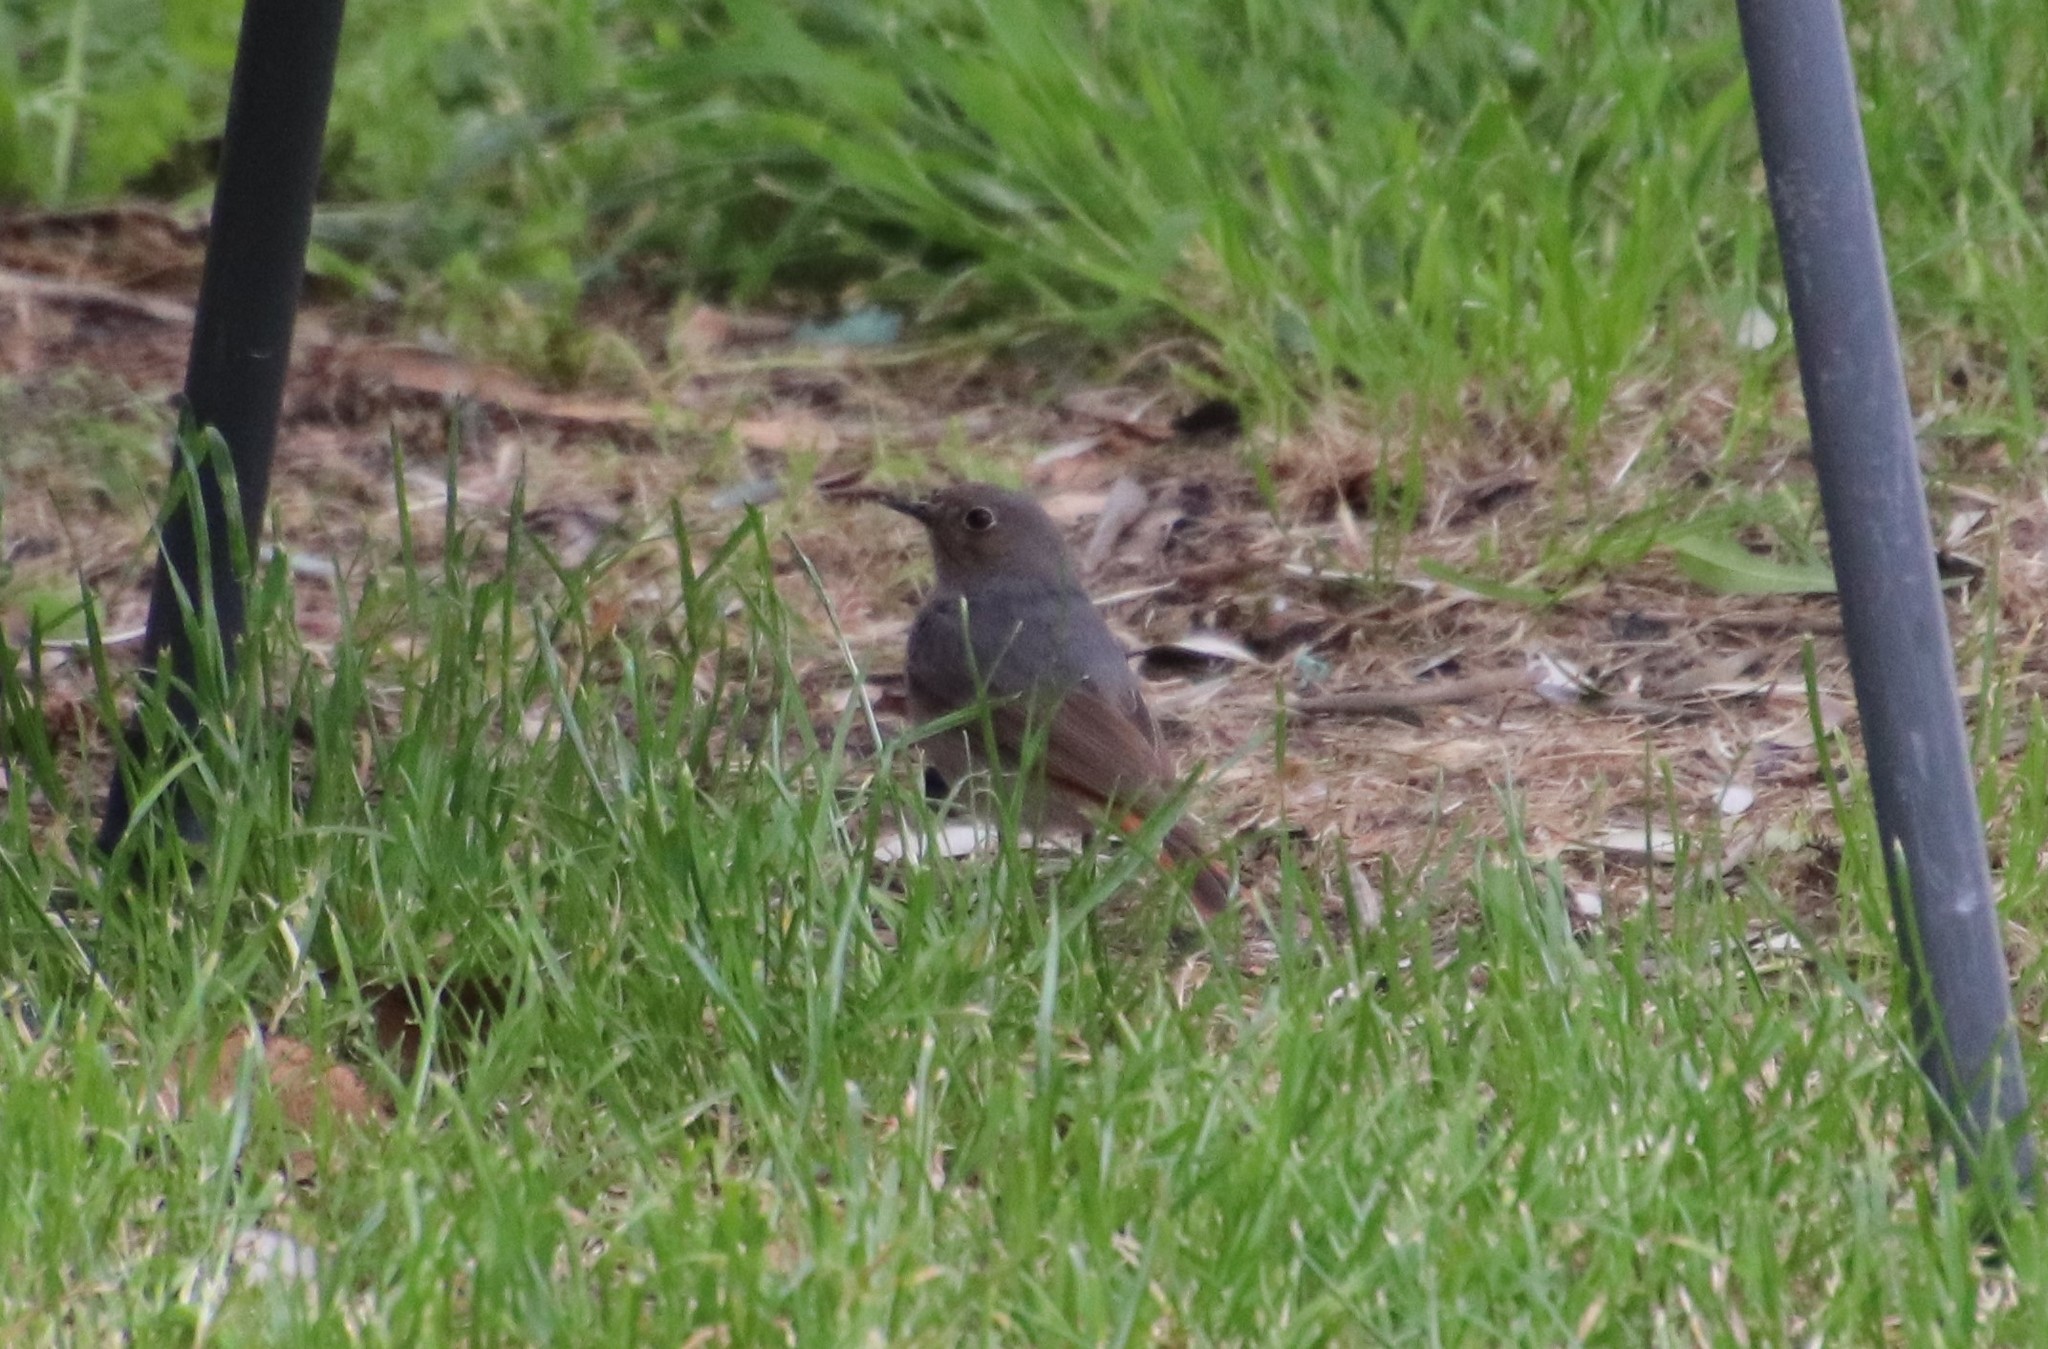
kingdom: Animalia
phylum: Chordata
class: Aves
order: Passeriformes
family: Muscicapidae
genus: Phoenicurus
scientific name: Phoenicurus ochruros
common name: Black redstart
